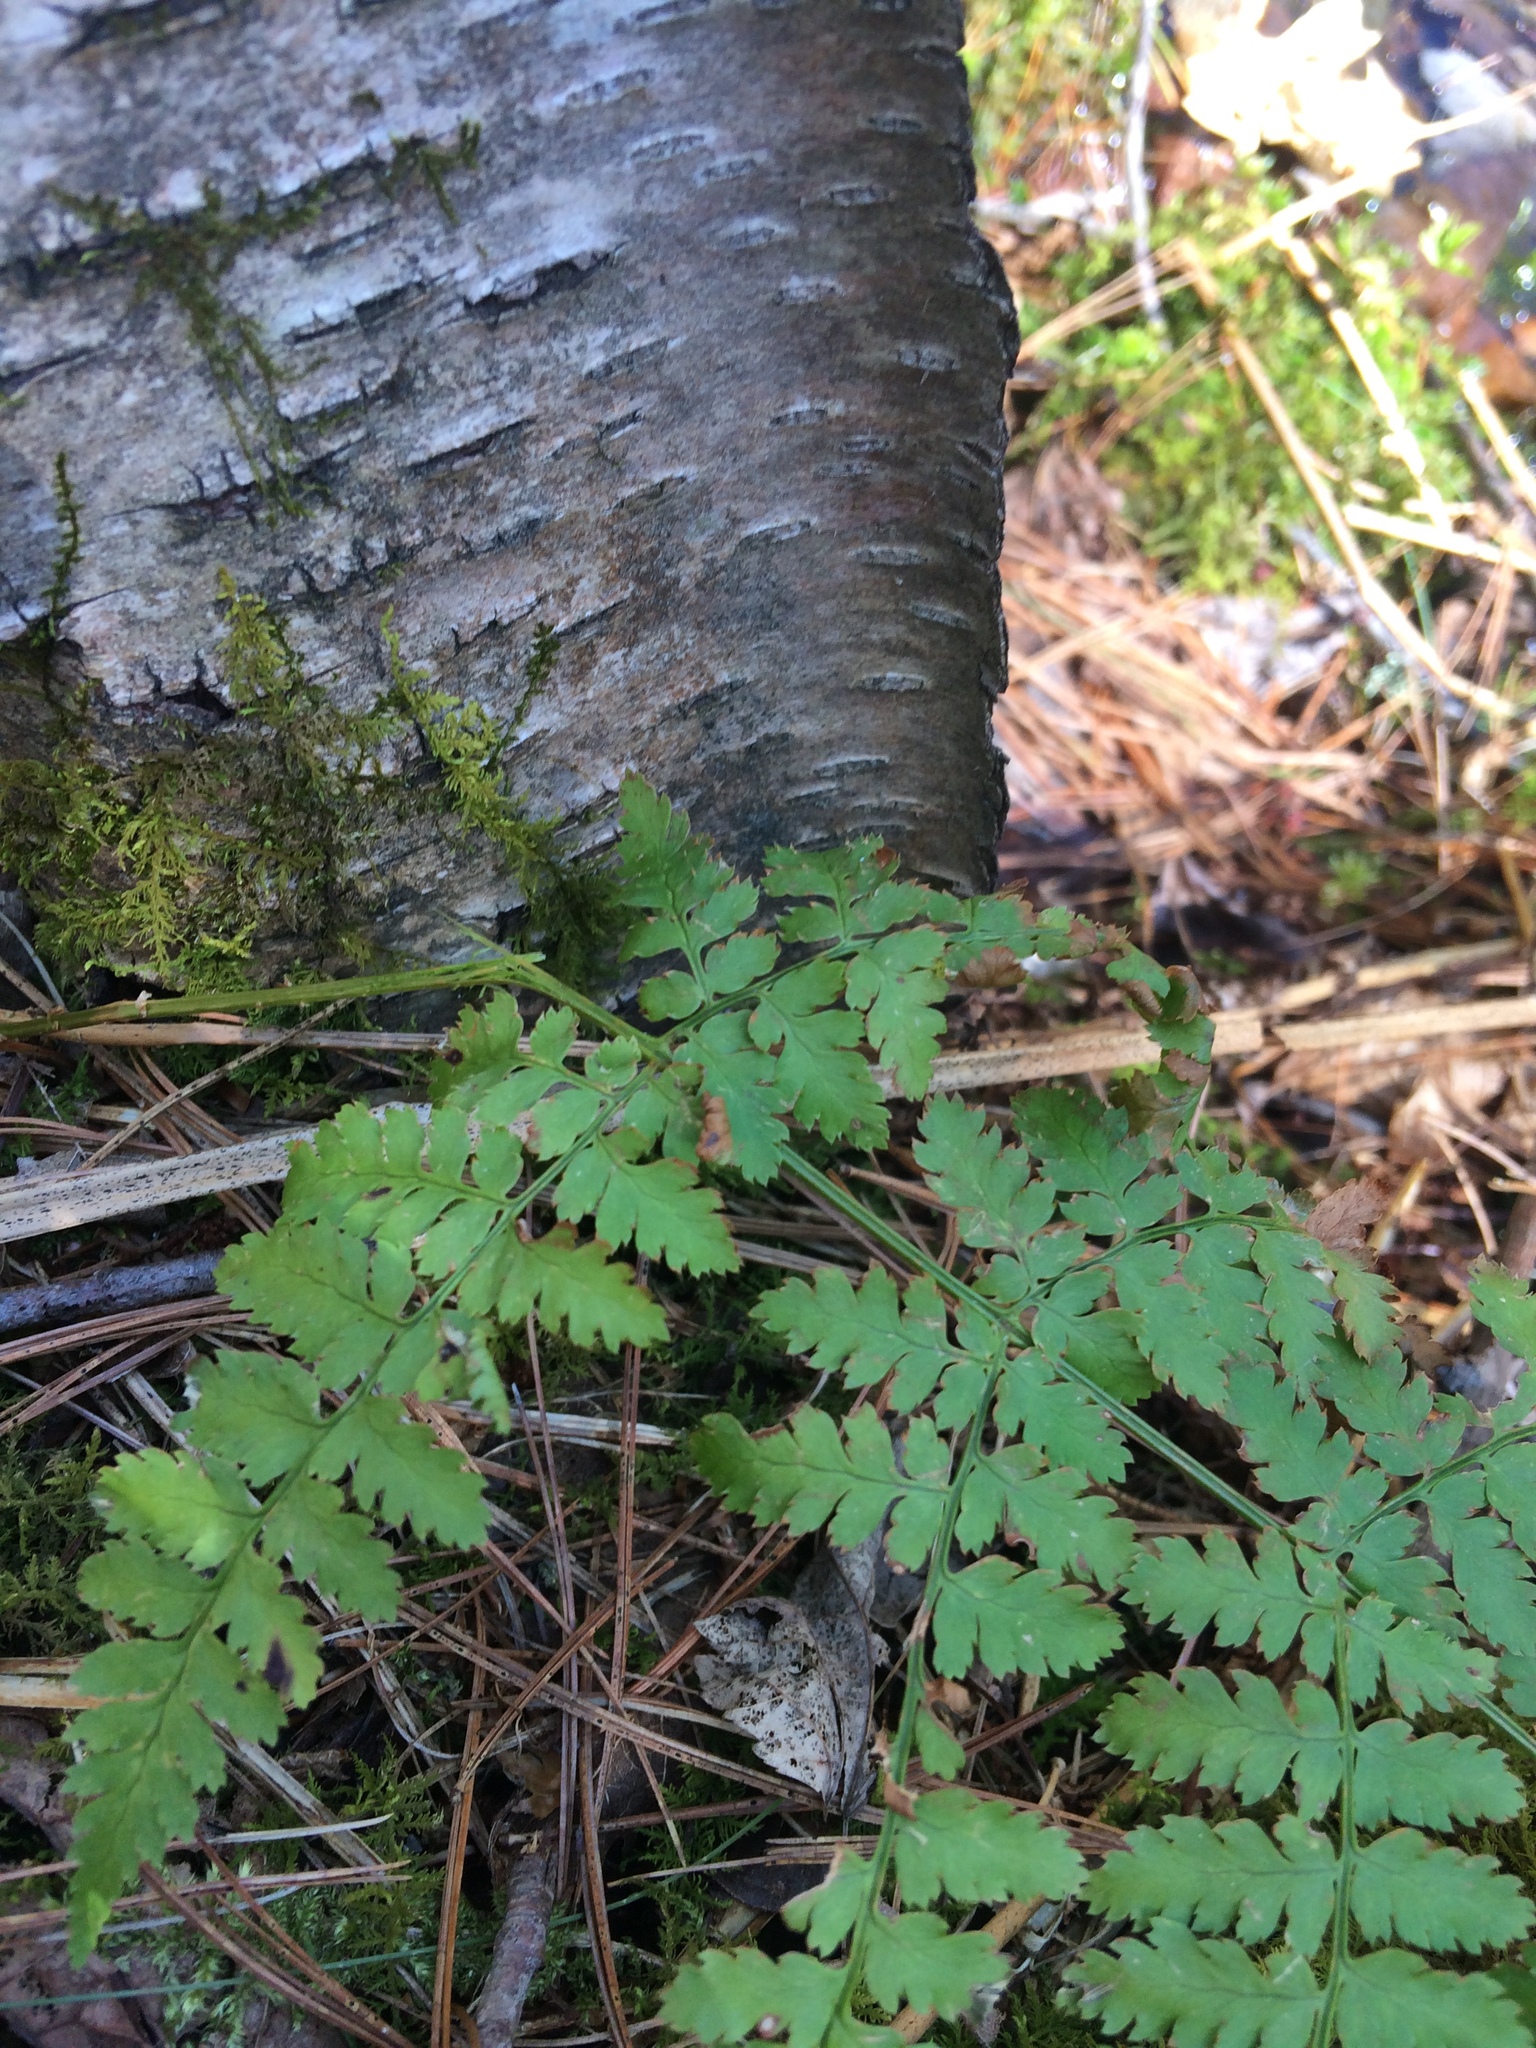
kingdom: Plantae
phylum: Tracheophyta
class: Polypodiopsida
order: Polypodiales
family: Dryopteridaceae
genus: Dryopteris
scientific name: Dryopteris intermedia
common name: Evergreen wood fern
